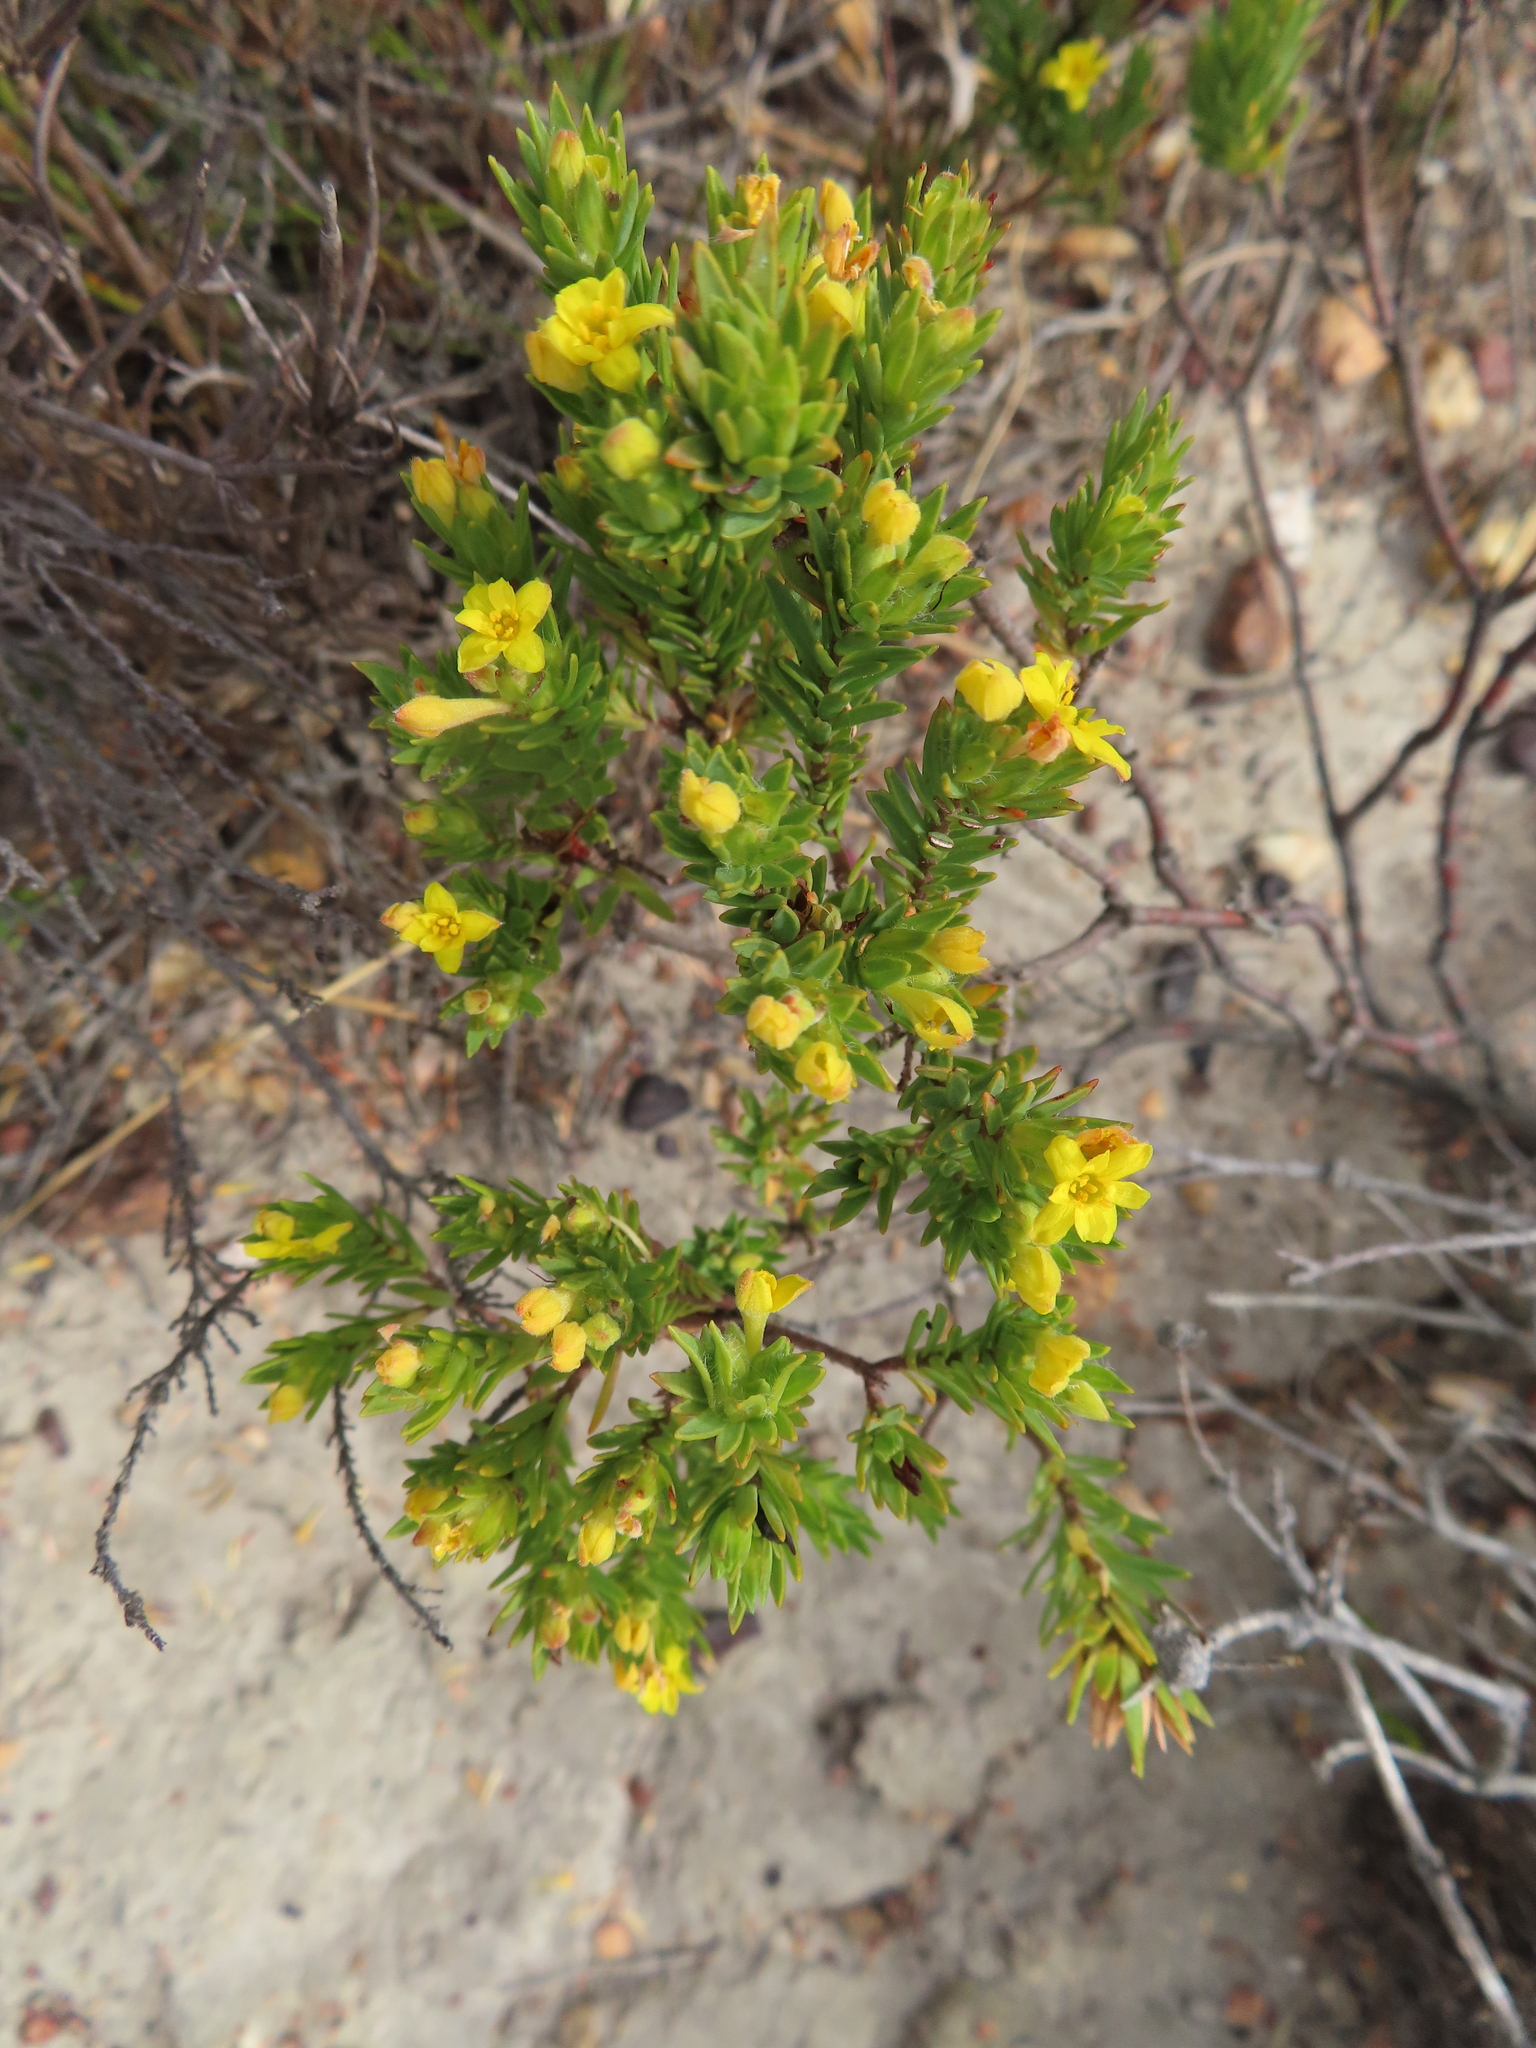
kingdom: Plantae
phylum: Tracheophyta
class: Magnoliopsida
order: Malvales
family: Thymelaeaceae
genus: Gnidia
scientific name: Gnidia juniperifolia
